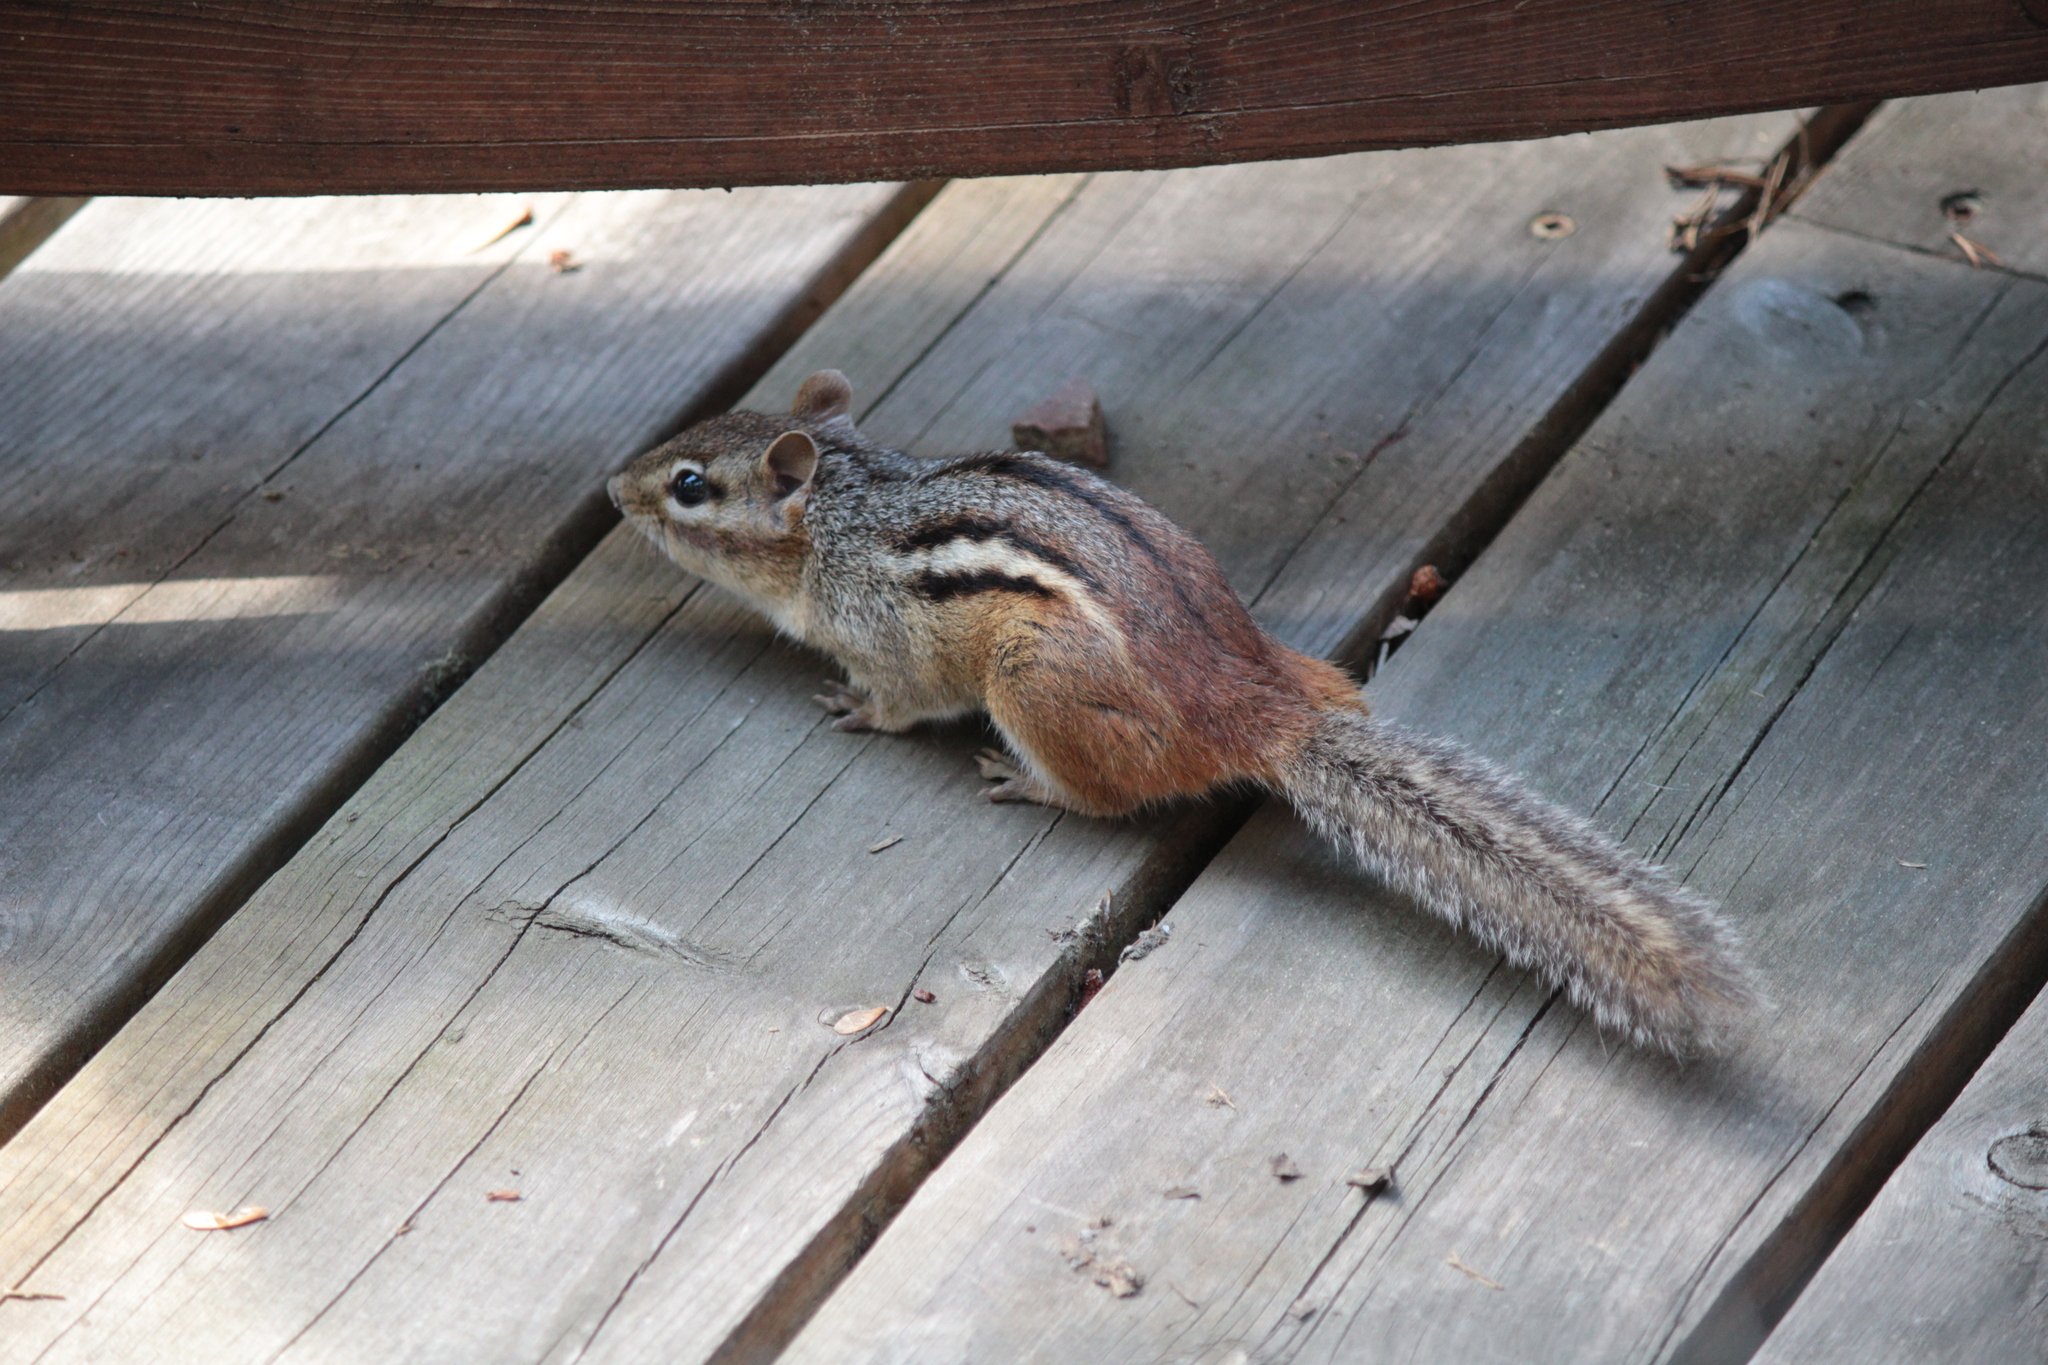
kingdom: Animalia
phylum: Chordata
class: Mammalia
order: Rodentia
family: Sciuridae
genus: Tamias
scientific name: Tamias striatus
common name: Eastern chipmunk
